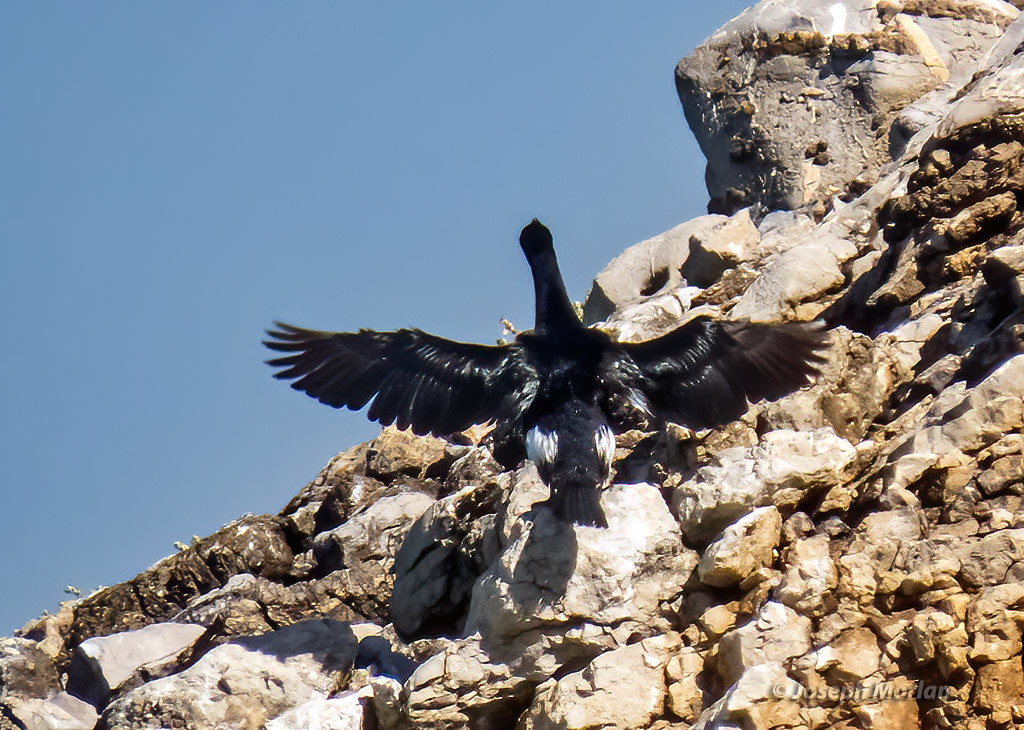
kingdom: Animalia
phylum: Chordata
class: Aves
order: Suliformes
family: Phalacrocoracidae
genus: Phalacrocorax
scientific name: Phalacrocorax pelagicus
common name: Pelagic cormorant
